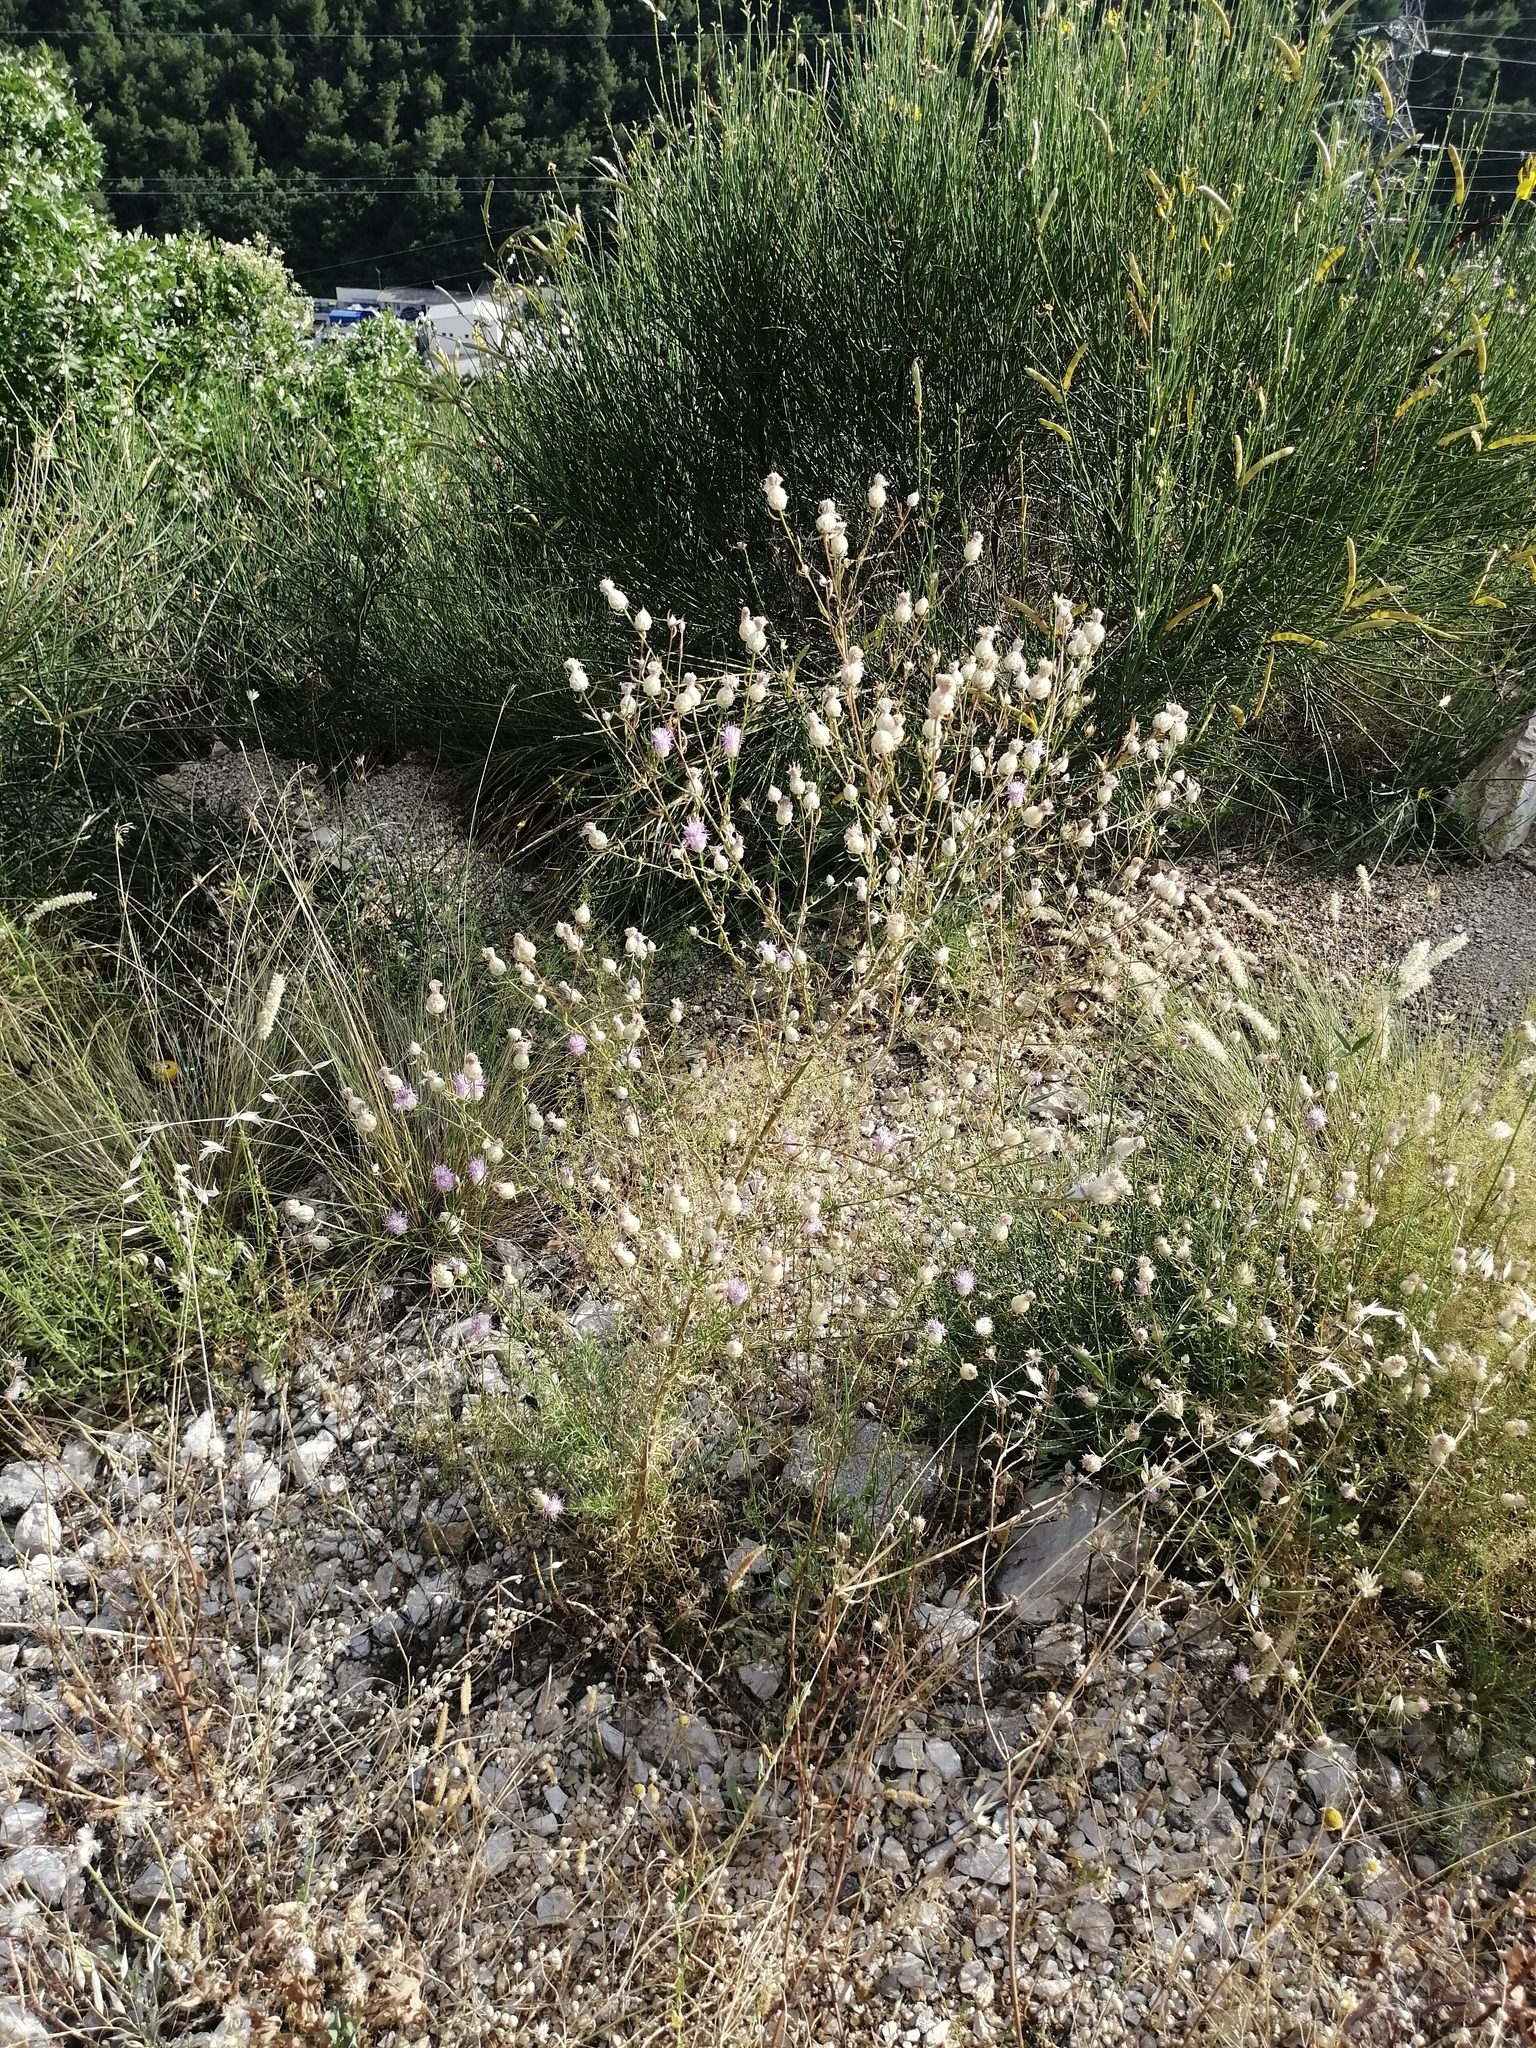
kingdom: Plantae
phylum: Tracheophyta
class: Magnoliopsida
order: Asterales
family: Asteraceae
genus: Centaurea
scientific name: Centaurea deusta
